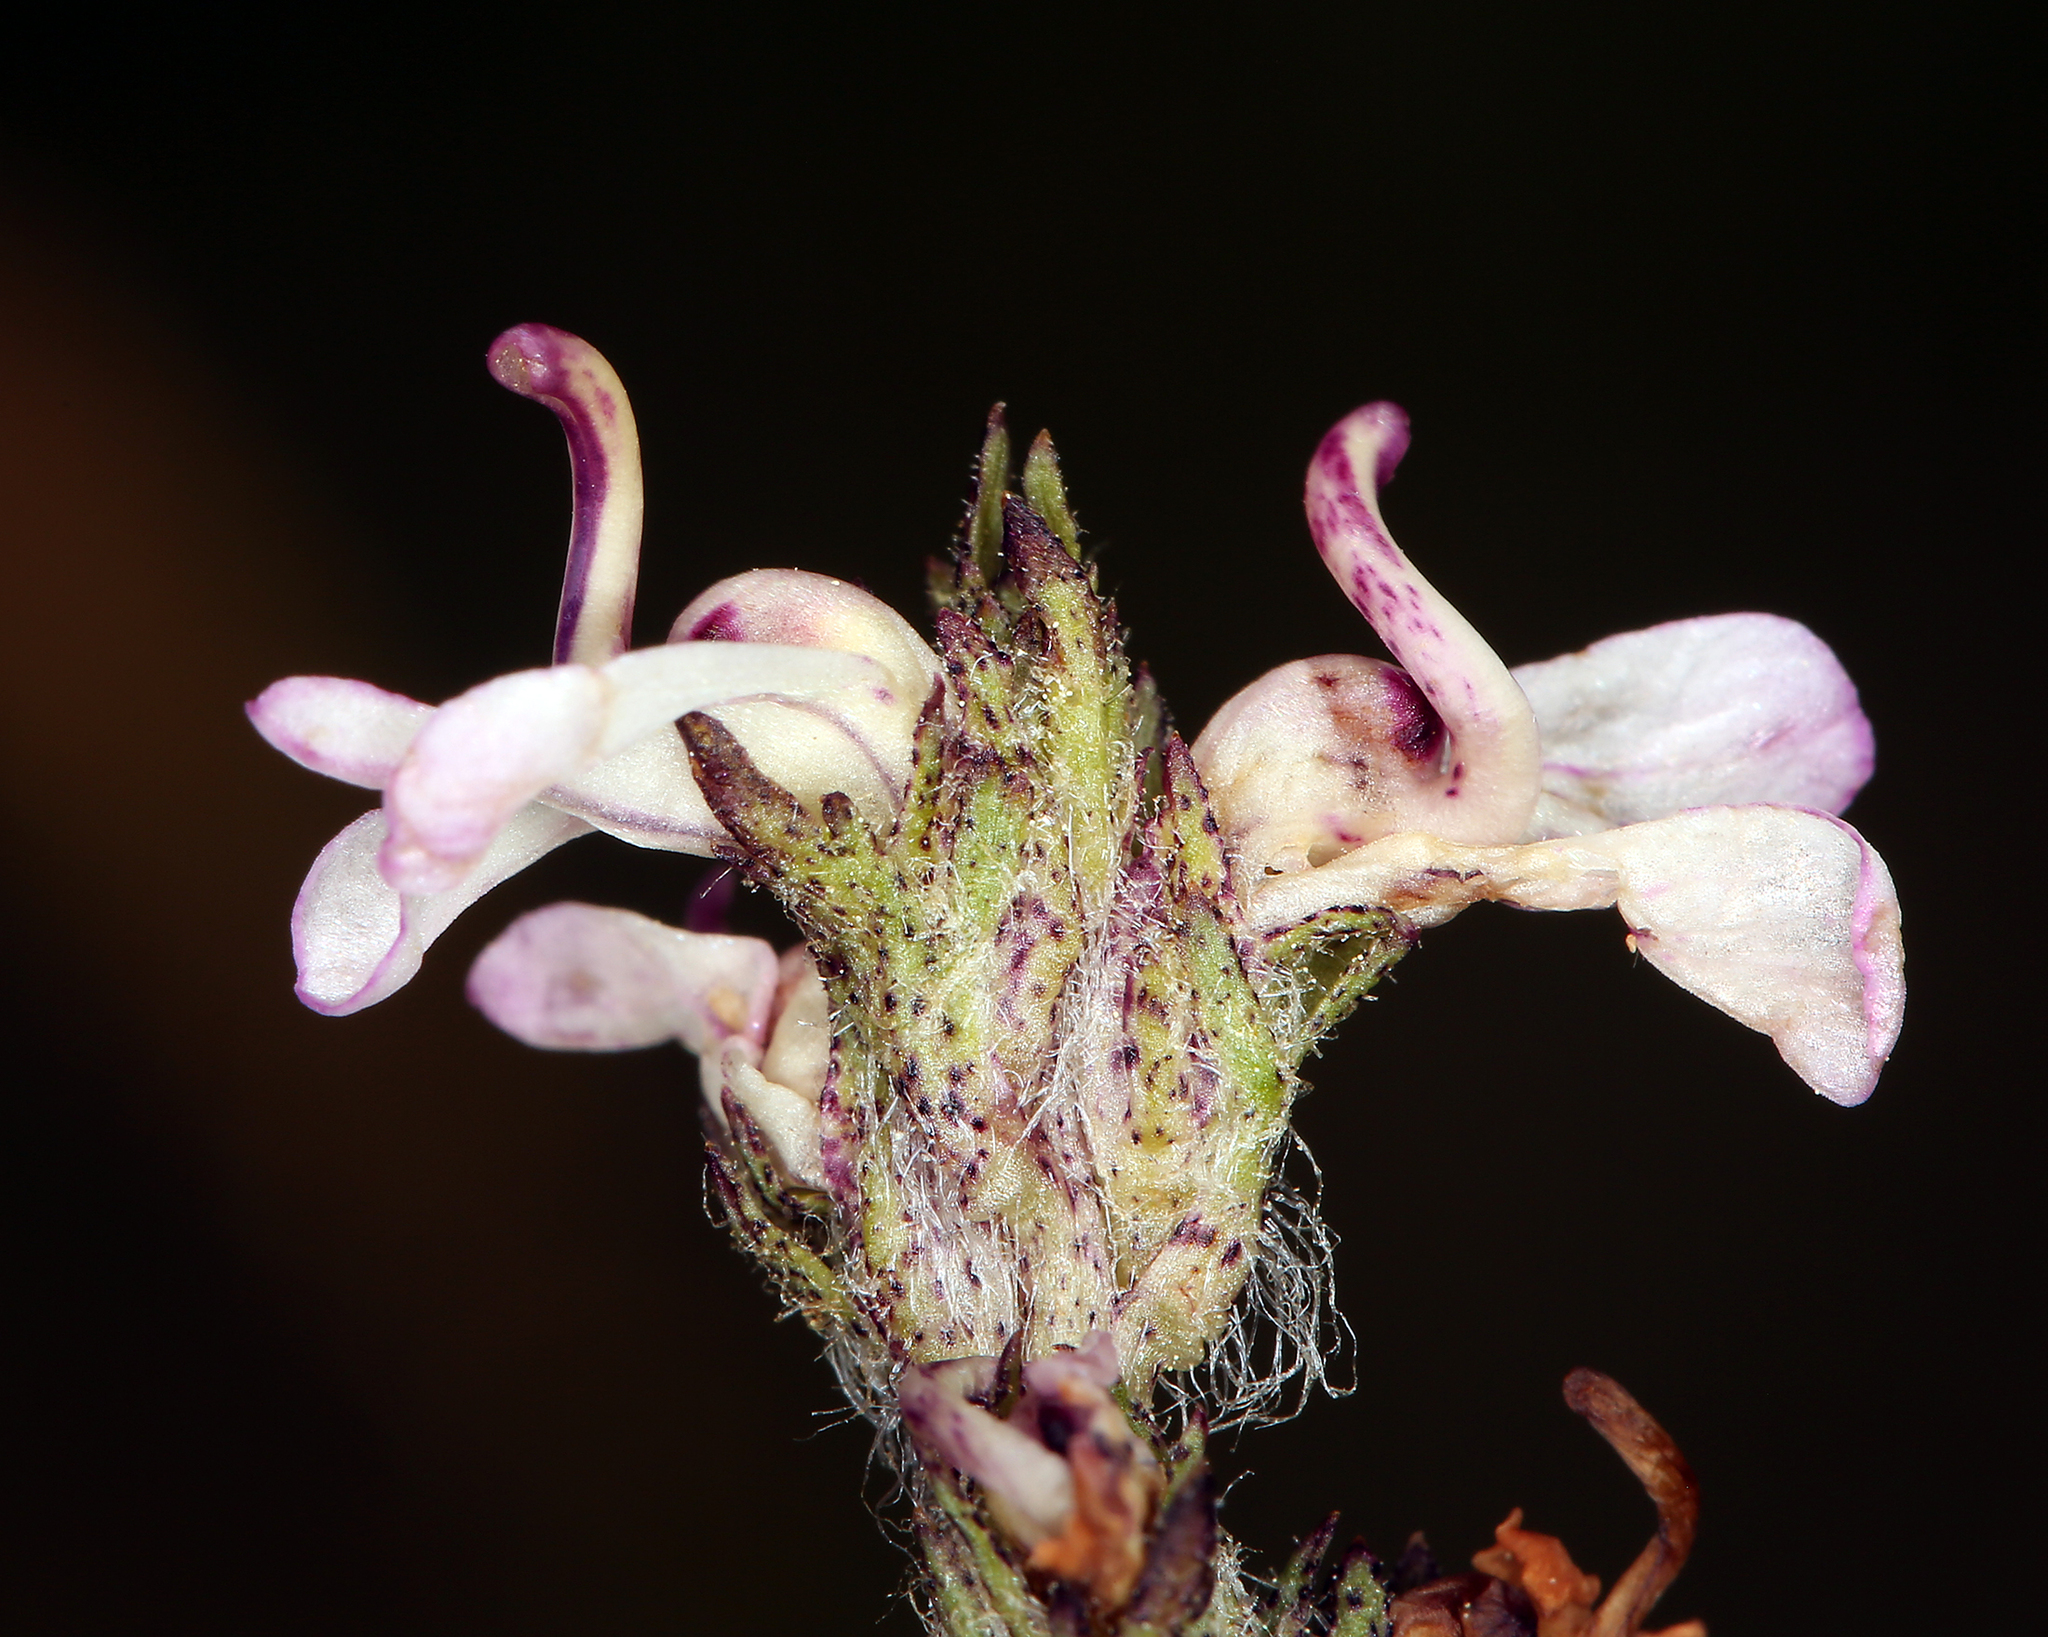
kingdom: Plantae
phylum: Tracheophyta
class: Magnoliopsida
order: Lamiales
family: Orobanchaceae
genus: Pedicularis
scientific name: Pedicularis attollens
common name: Slender pedicularis
